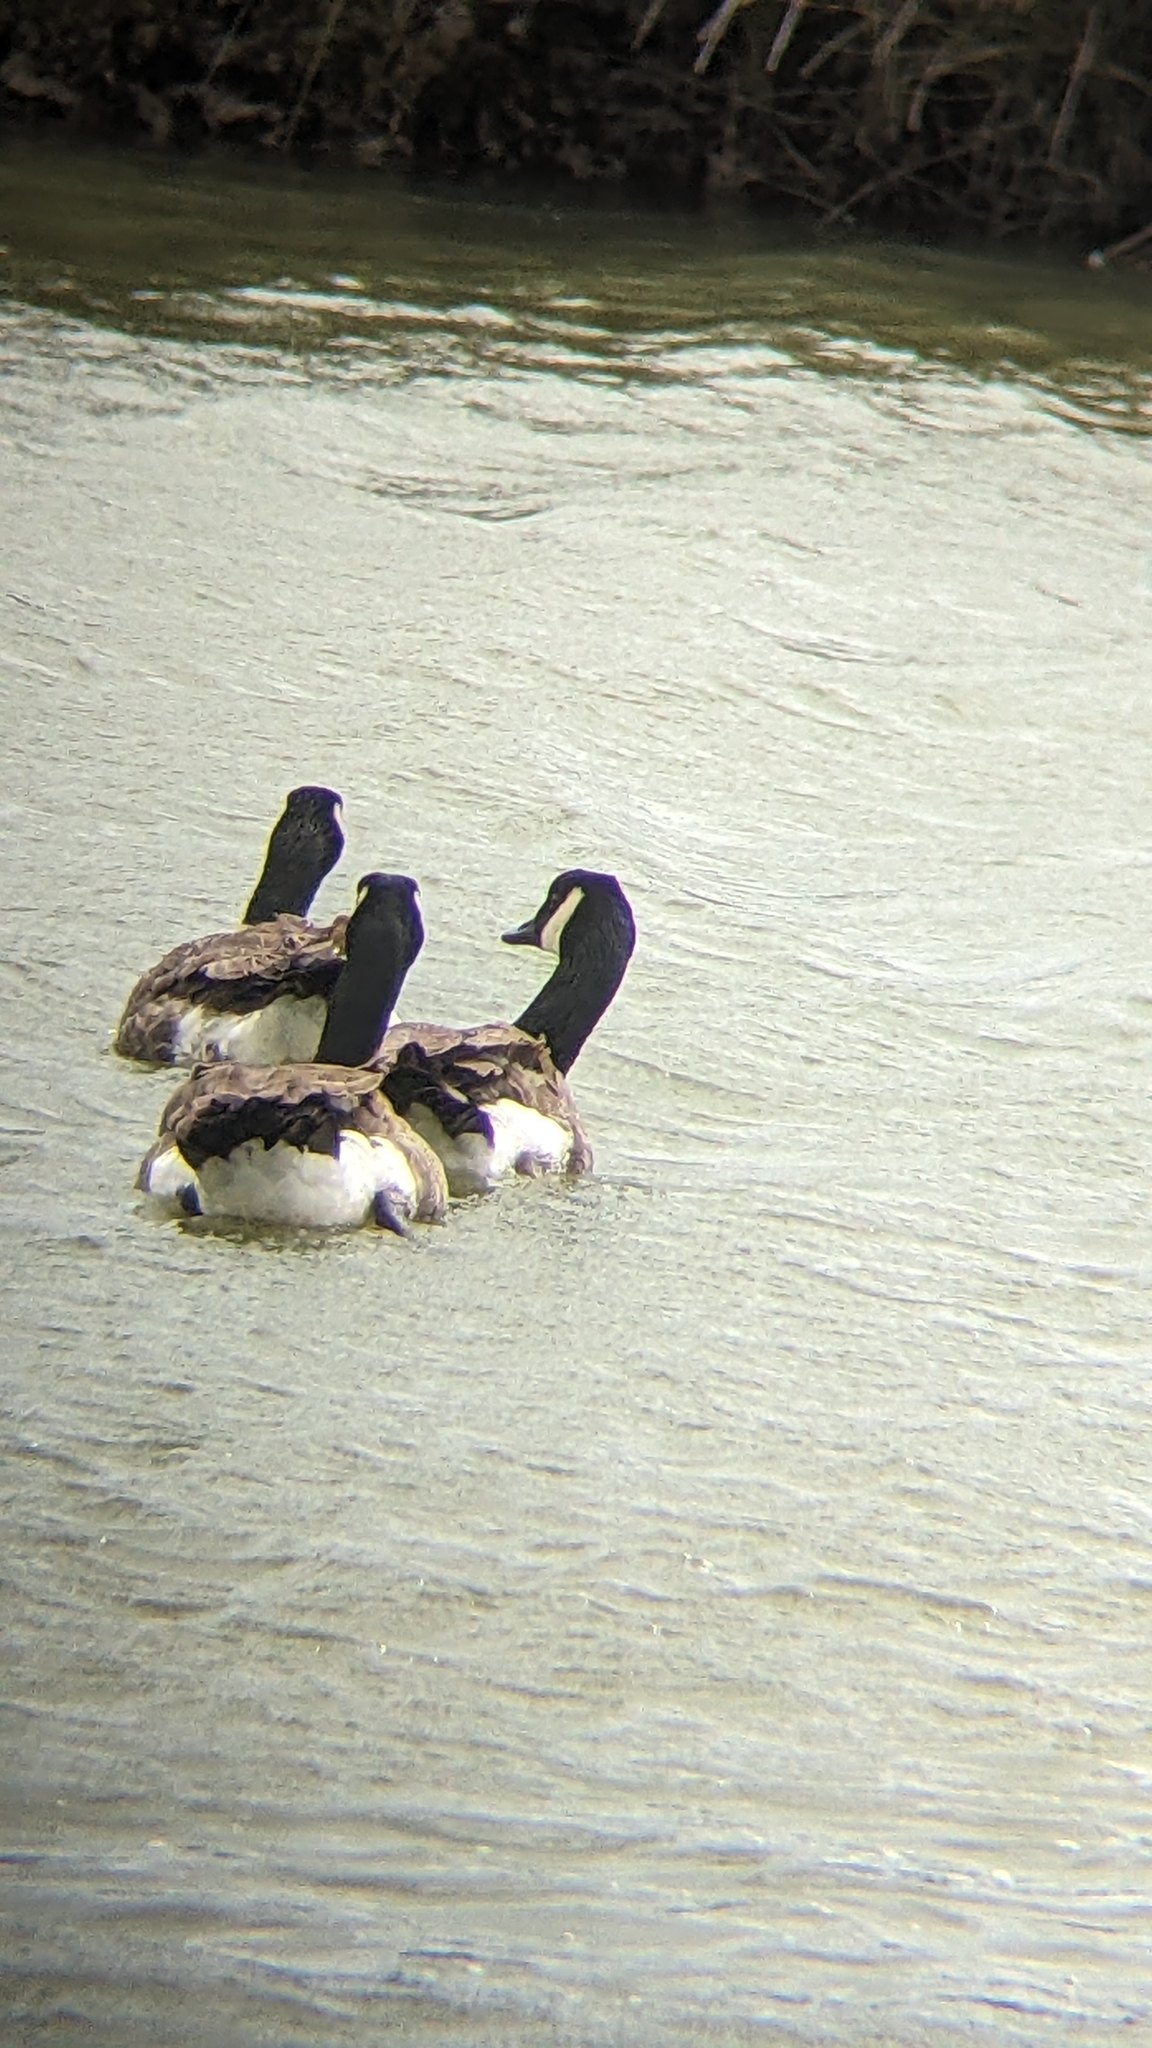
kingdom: Animalia
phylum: Chordata
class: Aves
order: Anseriformes
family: Anatidae
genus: Branta
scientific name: Branta canadensis
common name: Canada goose
